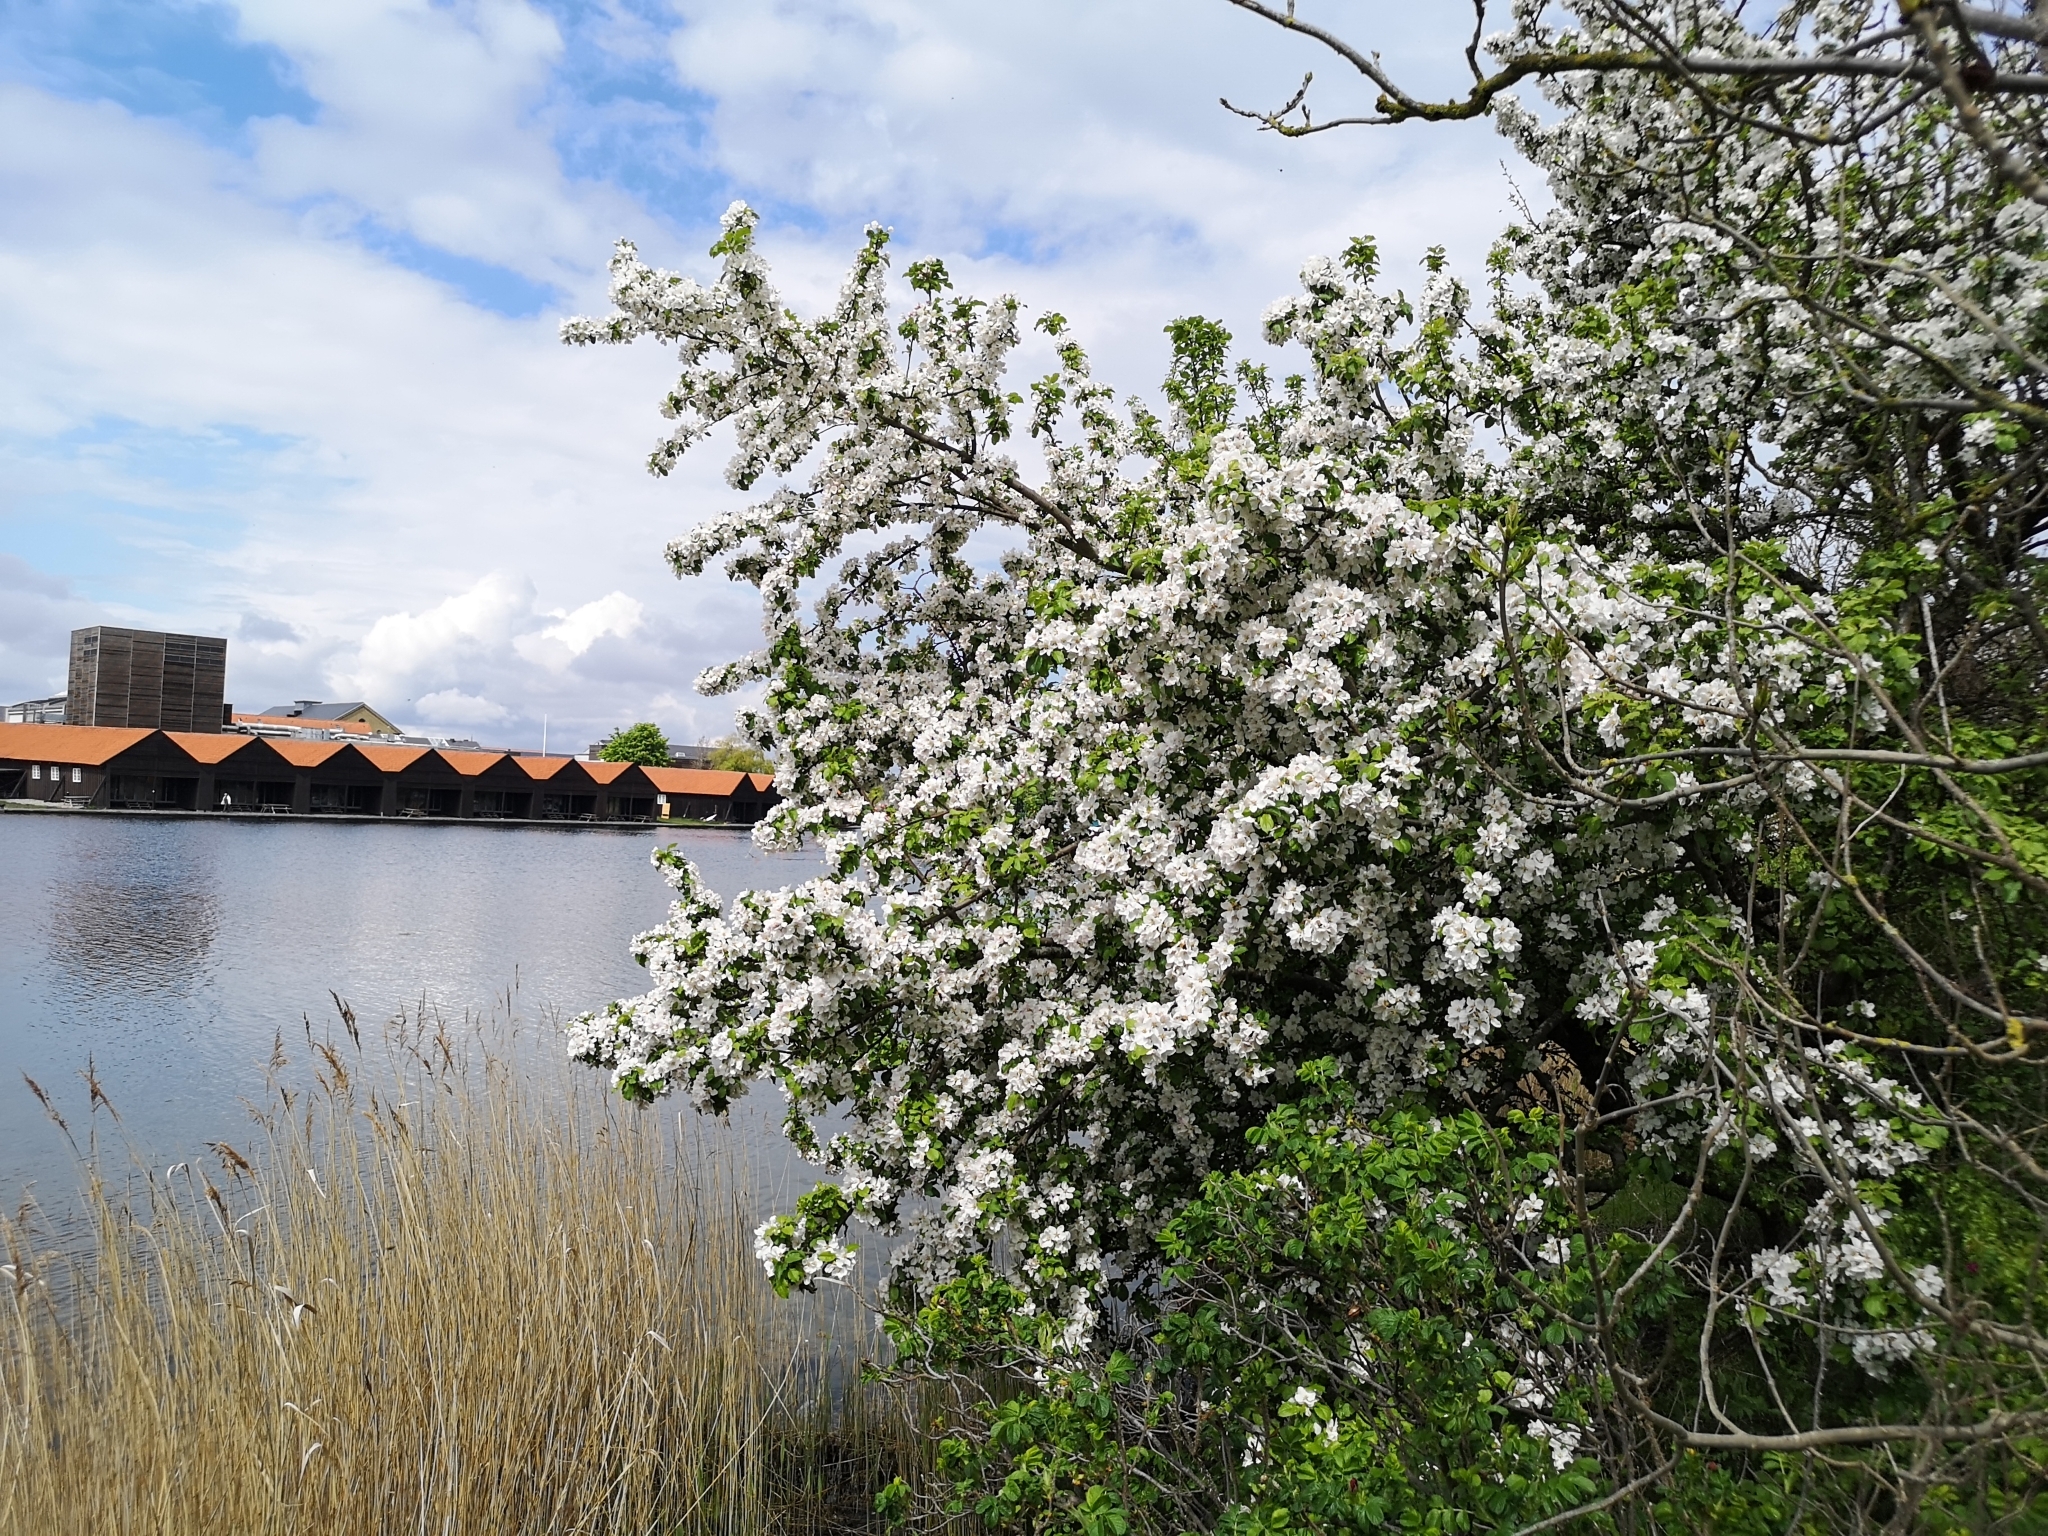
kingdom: Plantae
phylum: Tracheophyta
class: Magnoliopsida
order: Rosales
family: Rosaceae
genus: Malus
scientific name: Malus domestica
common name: Apple
